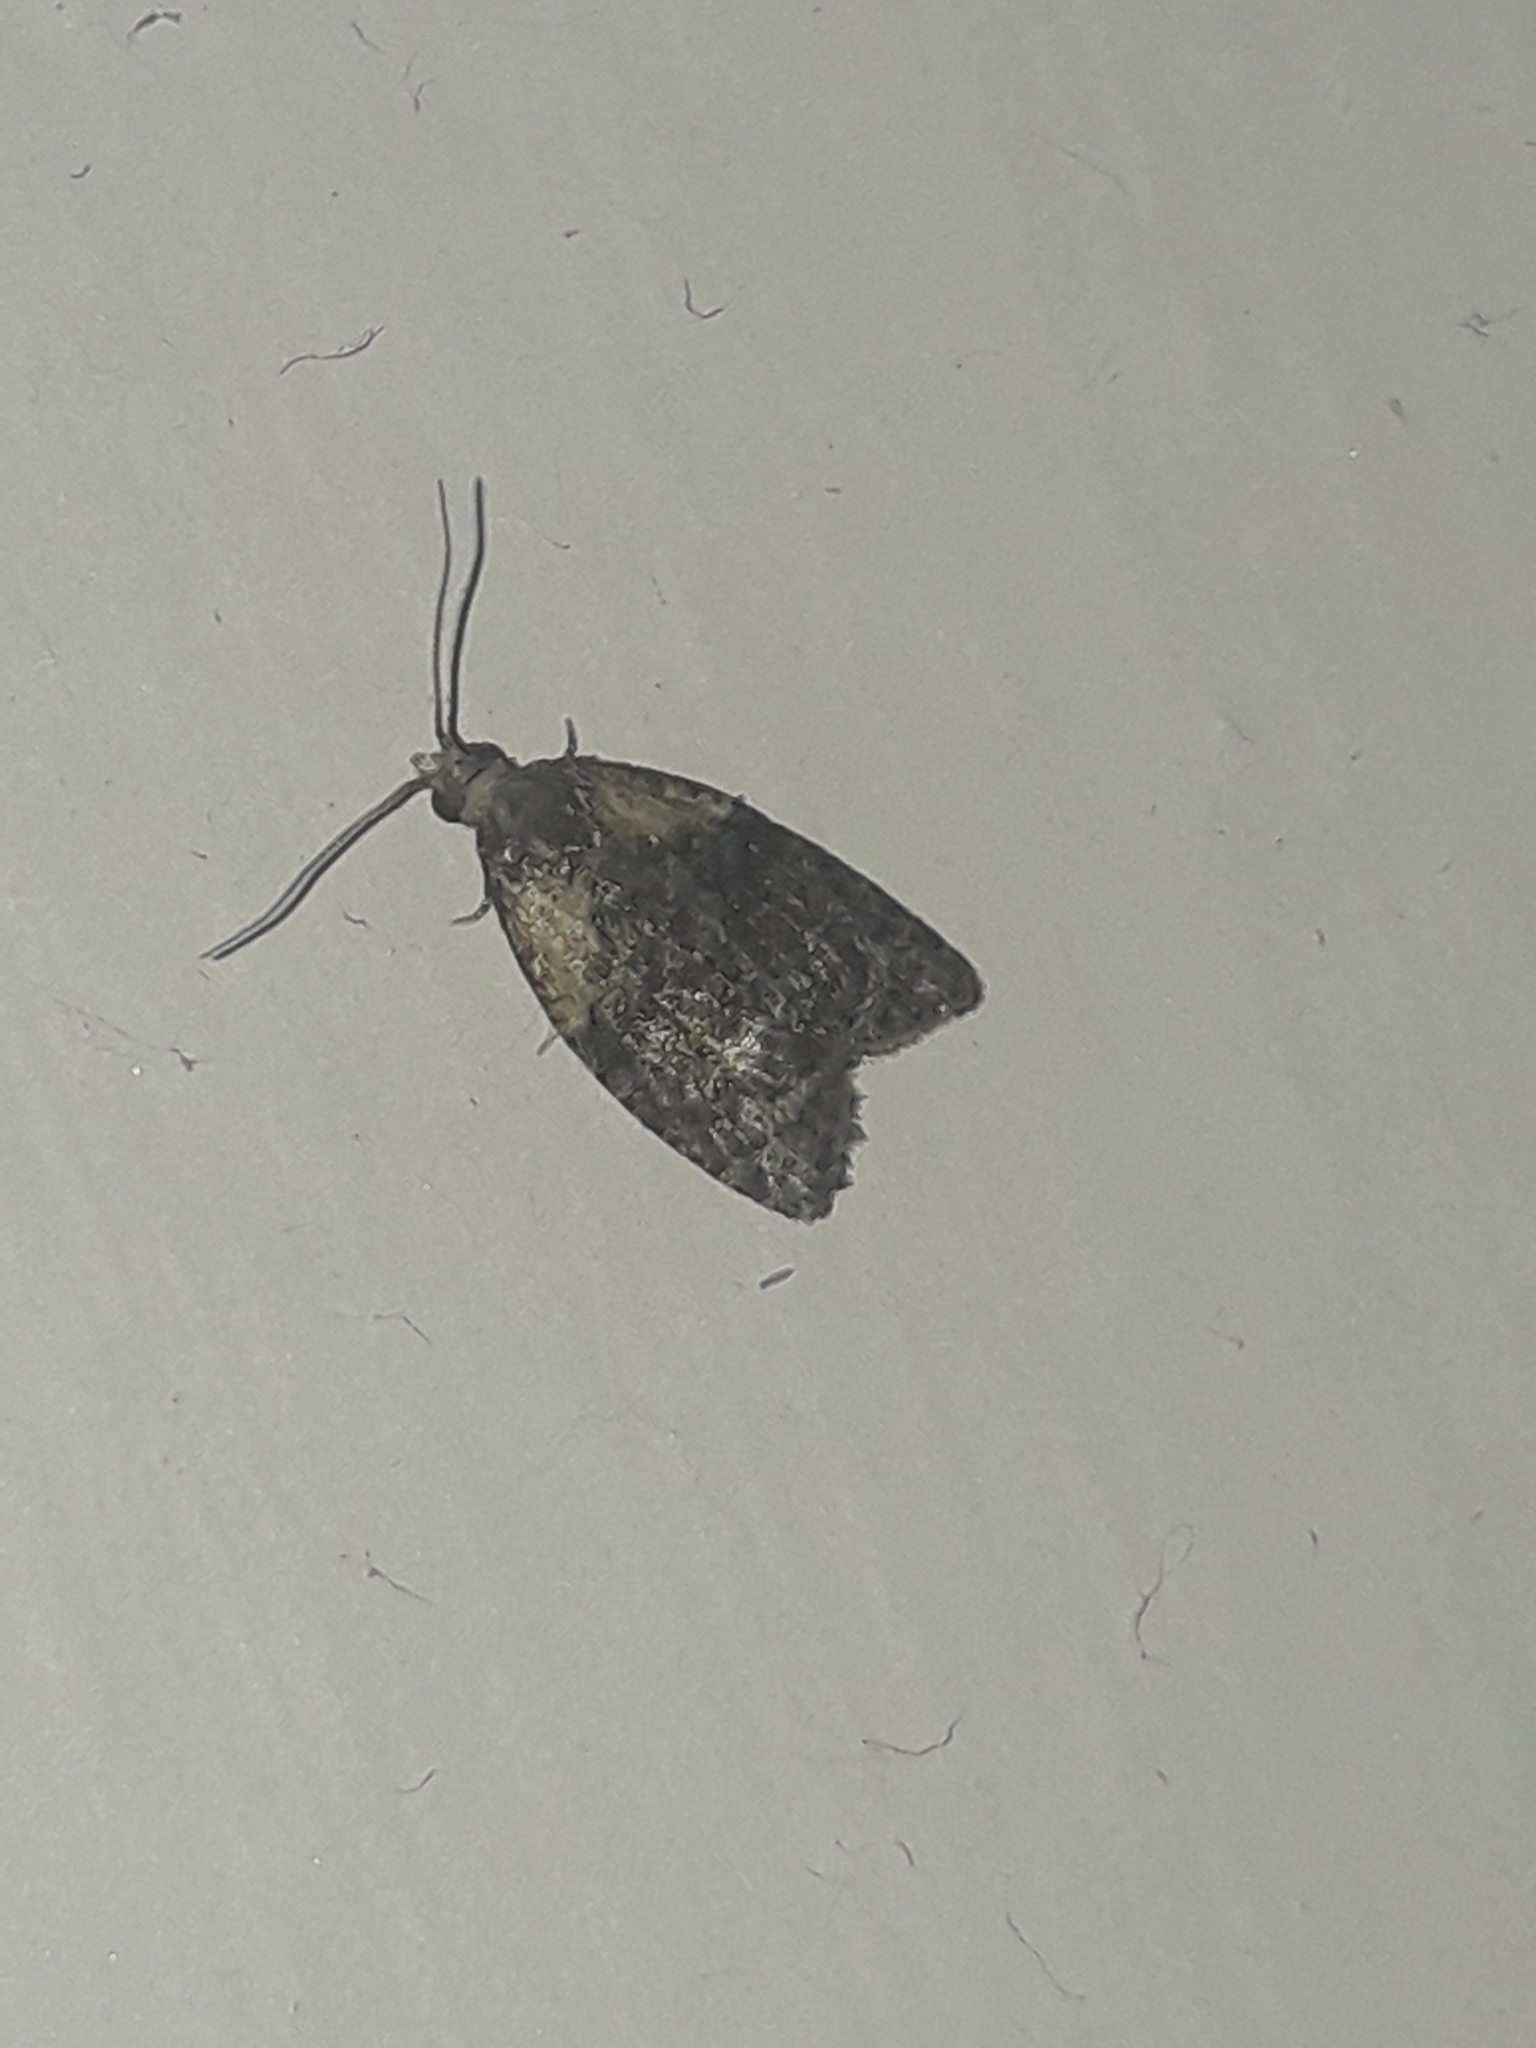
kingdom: Animalia
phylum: Arthropoda
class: Insecta
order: Lepidoptera
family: Tortricidae
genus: Capua
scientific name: Capua intractana
